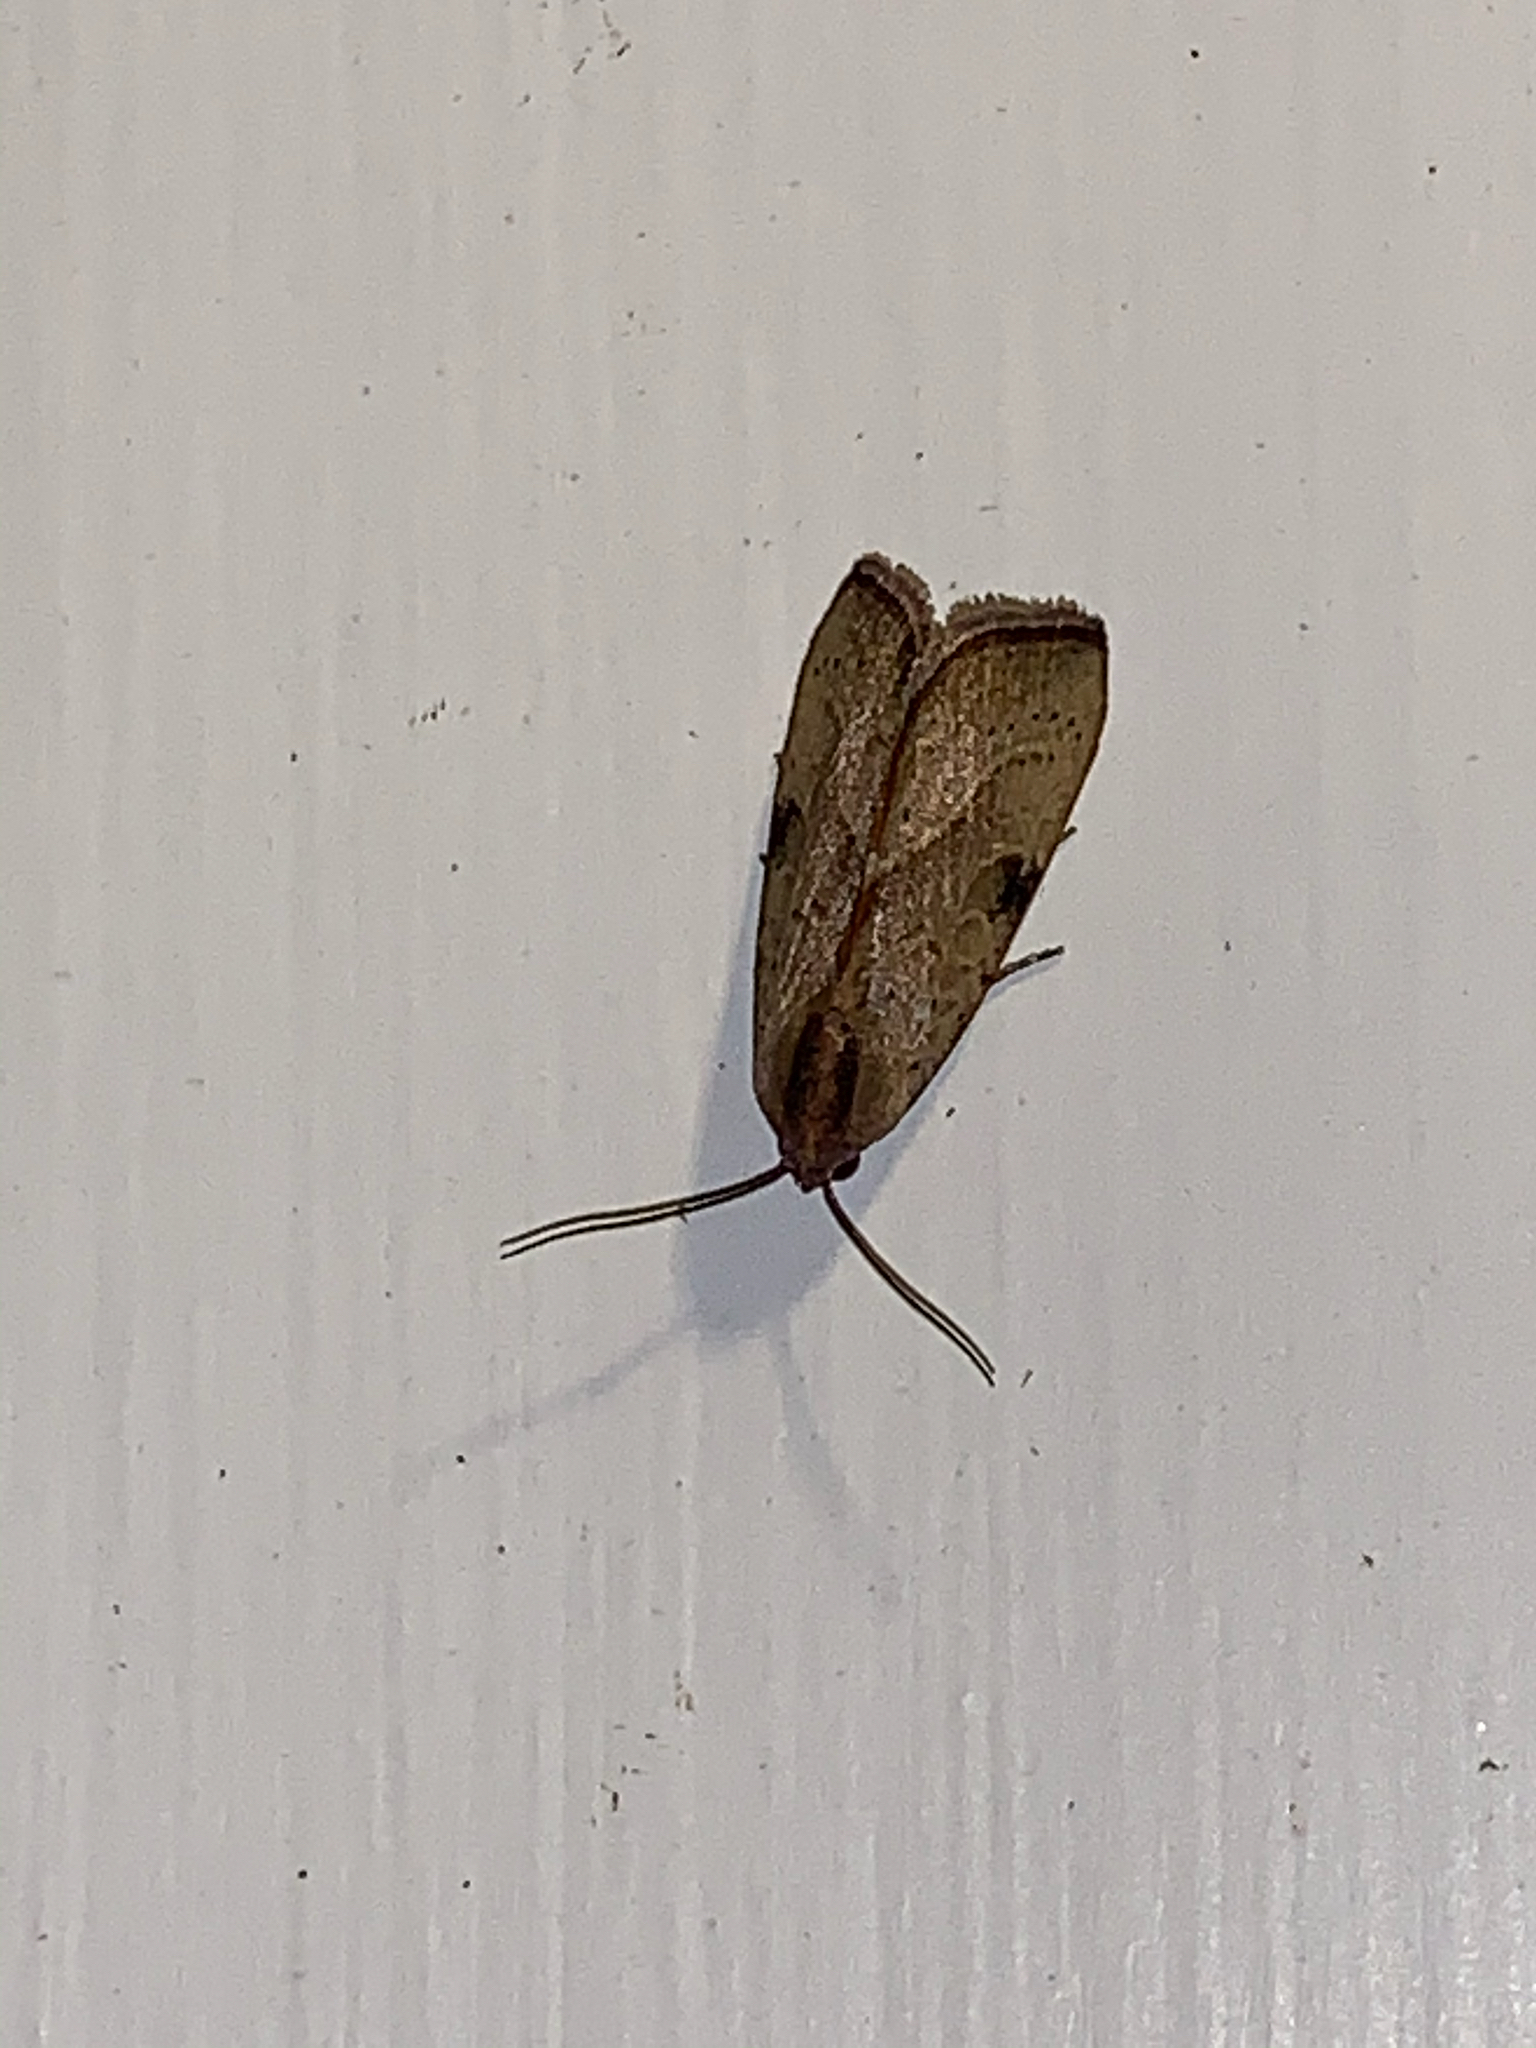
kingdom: Animalia
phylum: Arthropoda
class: Insecta
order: Lepidoptera
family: Noctuidae
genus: Galgula
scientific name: Galgula partita
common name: Wedgeling
